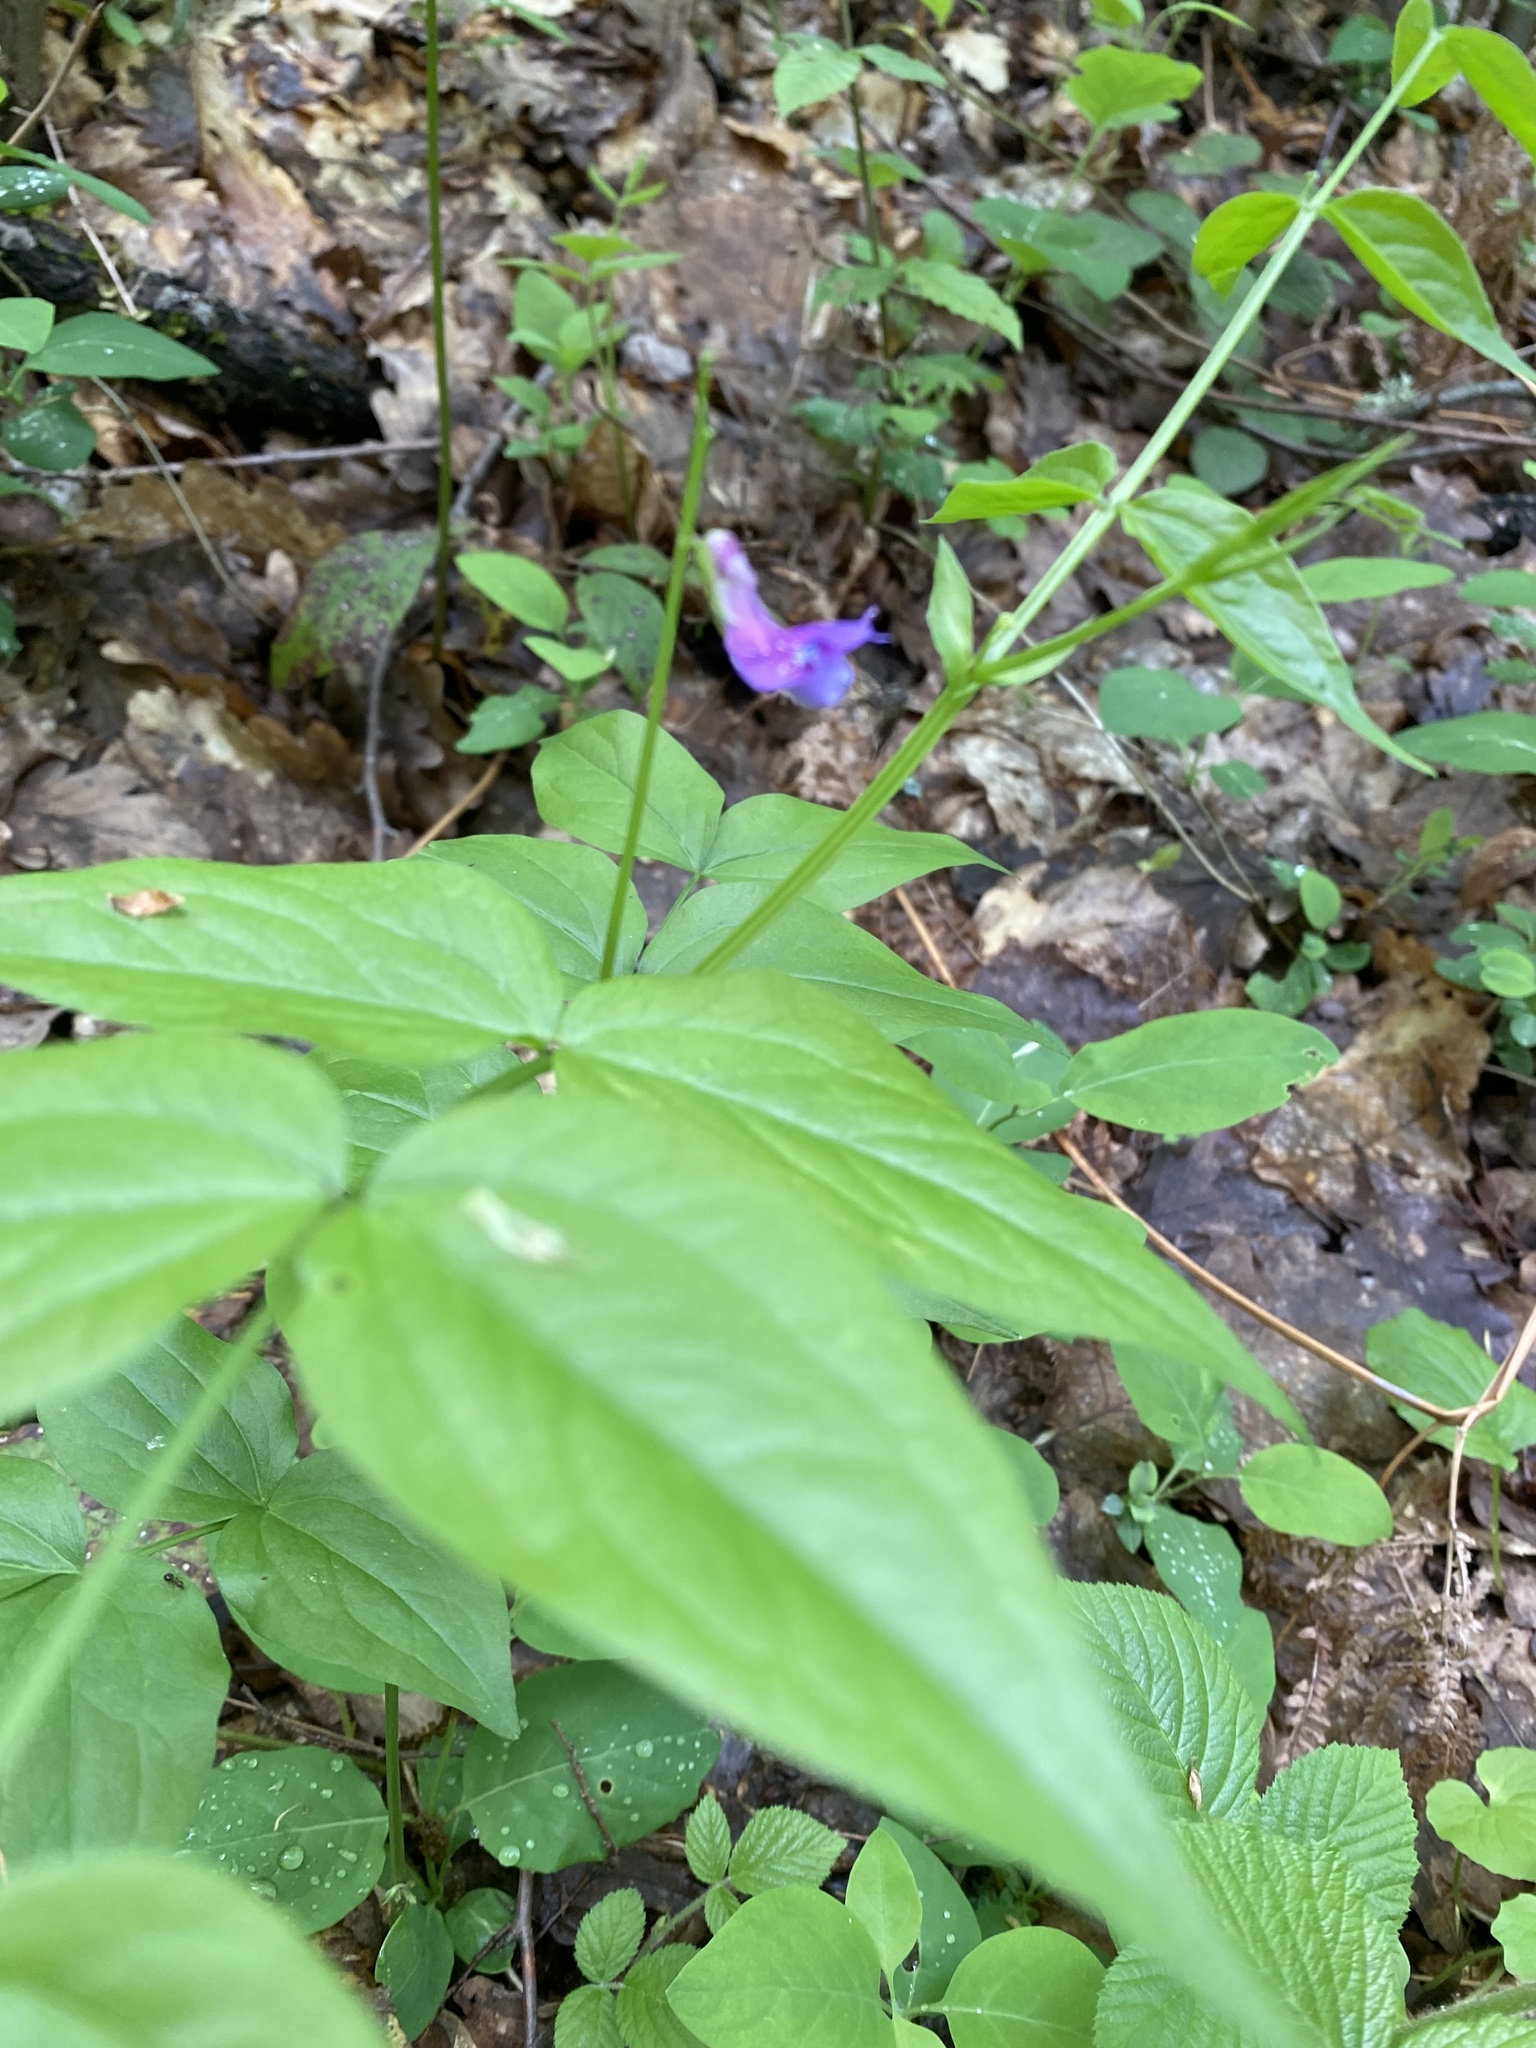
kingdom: Plantae
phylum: Tracheophyta
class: Magnoliopsida
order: Fabales
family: Fabaceae
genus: Lathyrus
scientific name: Lathyrus vernus
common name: Spring pea
